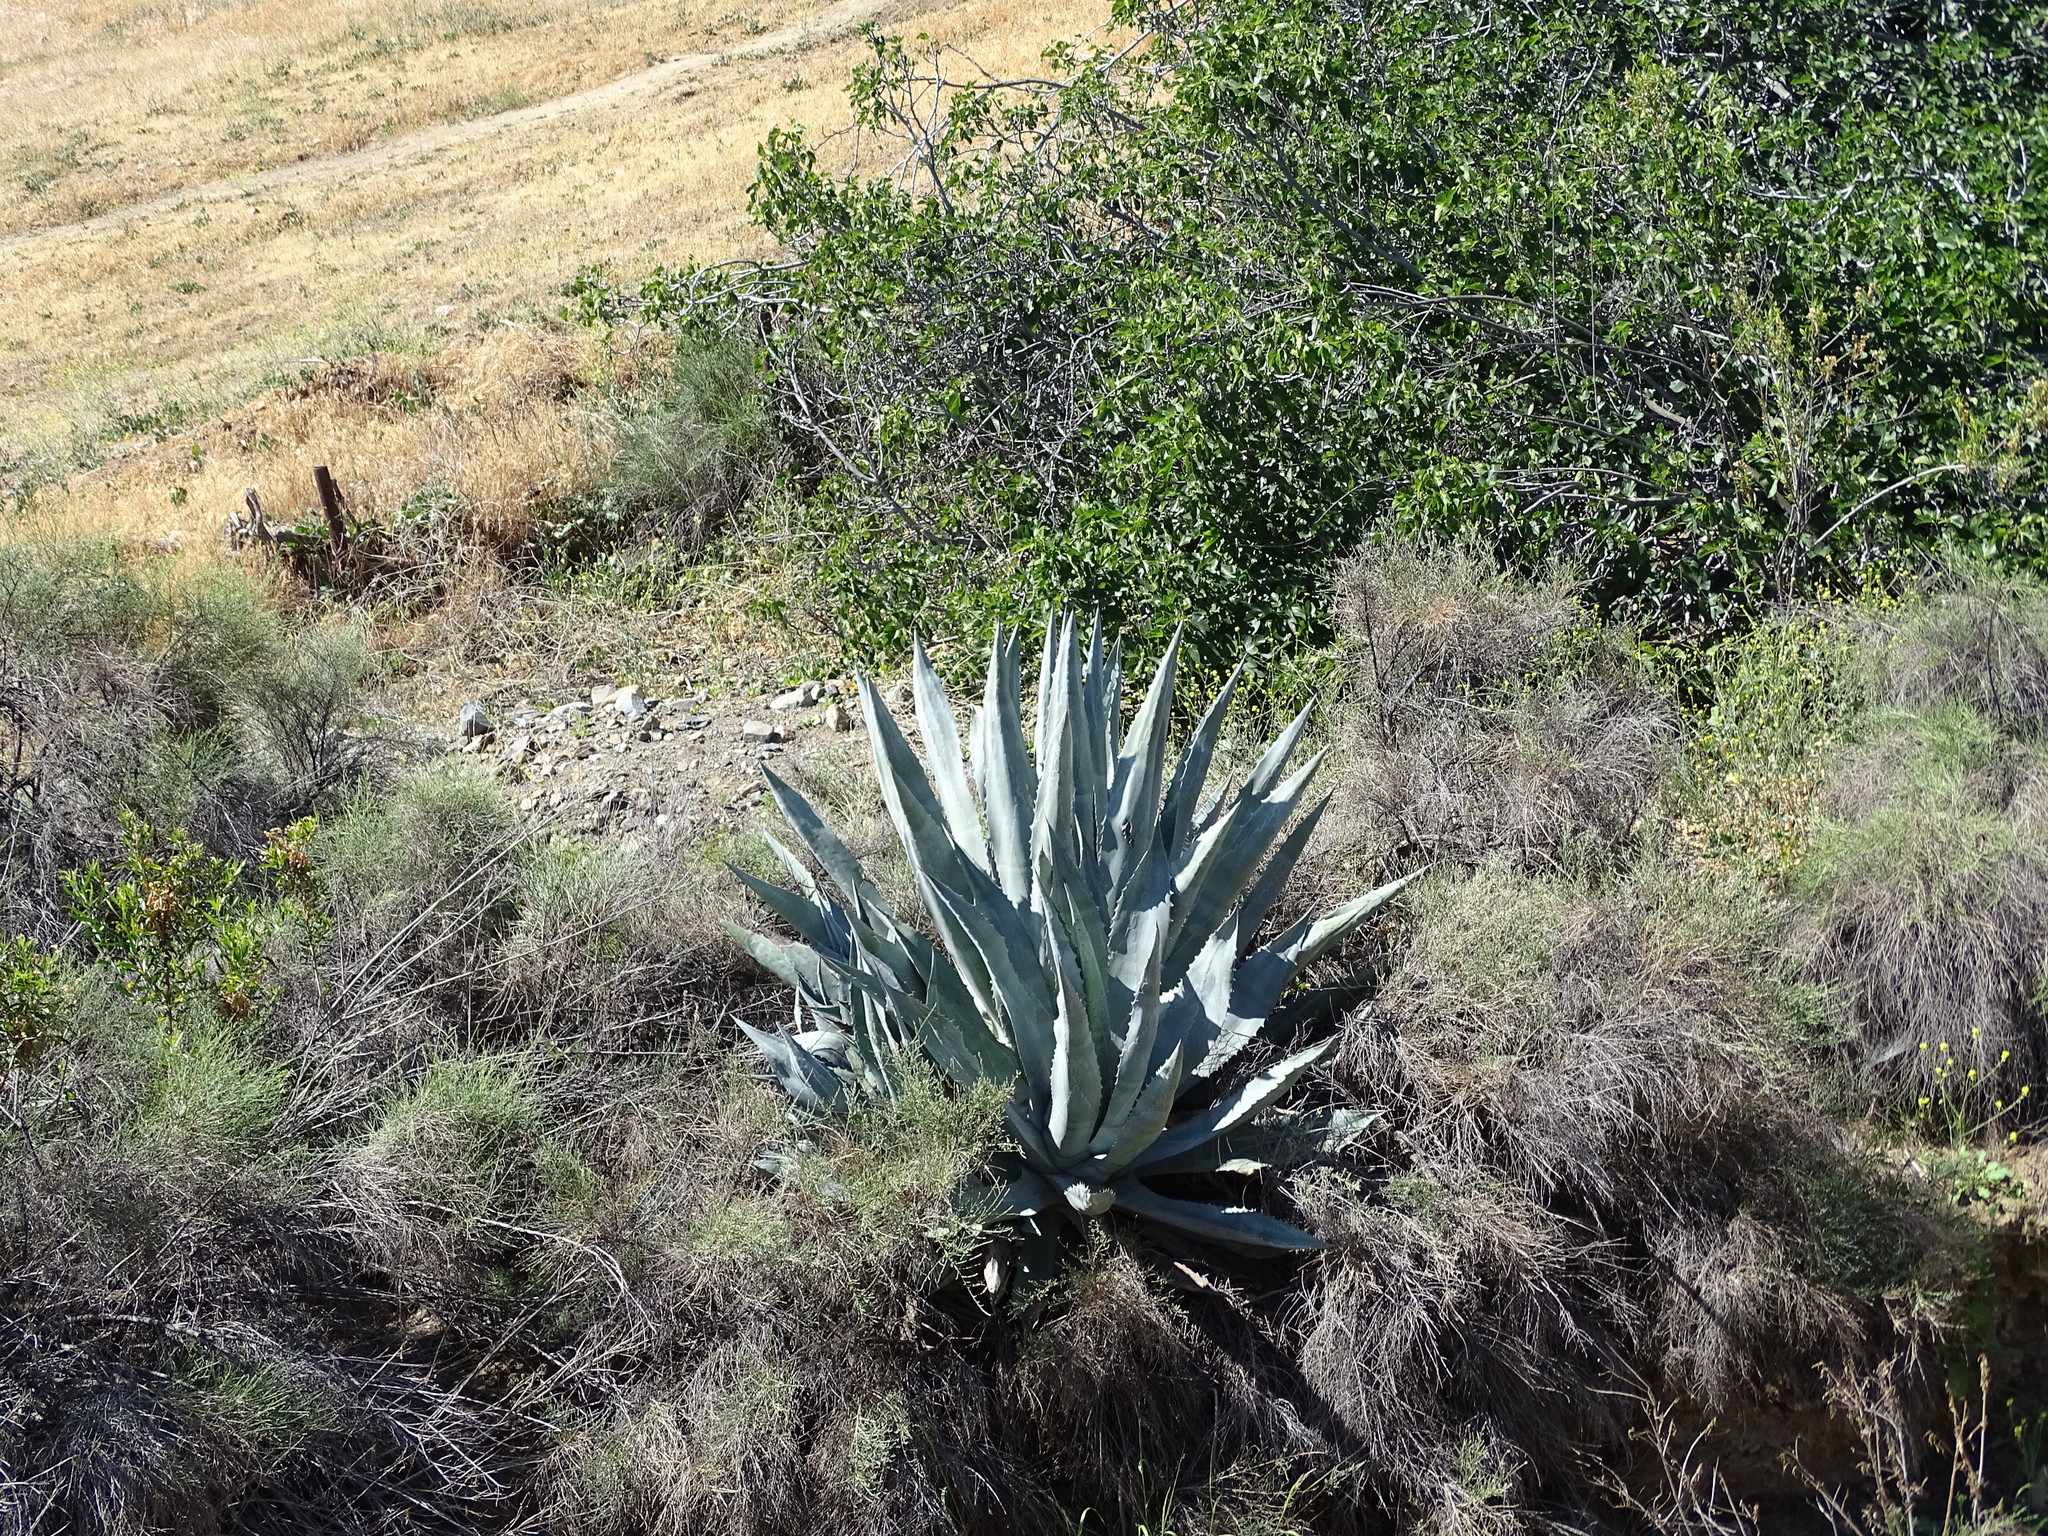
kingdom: Plantae
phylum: Tracheophyta
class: Liliopsida
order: Asparagales
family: Asparagaceae
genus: Agave
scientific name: Agave americana
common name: Centuryplant
